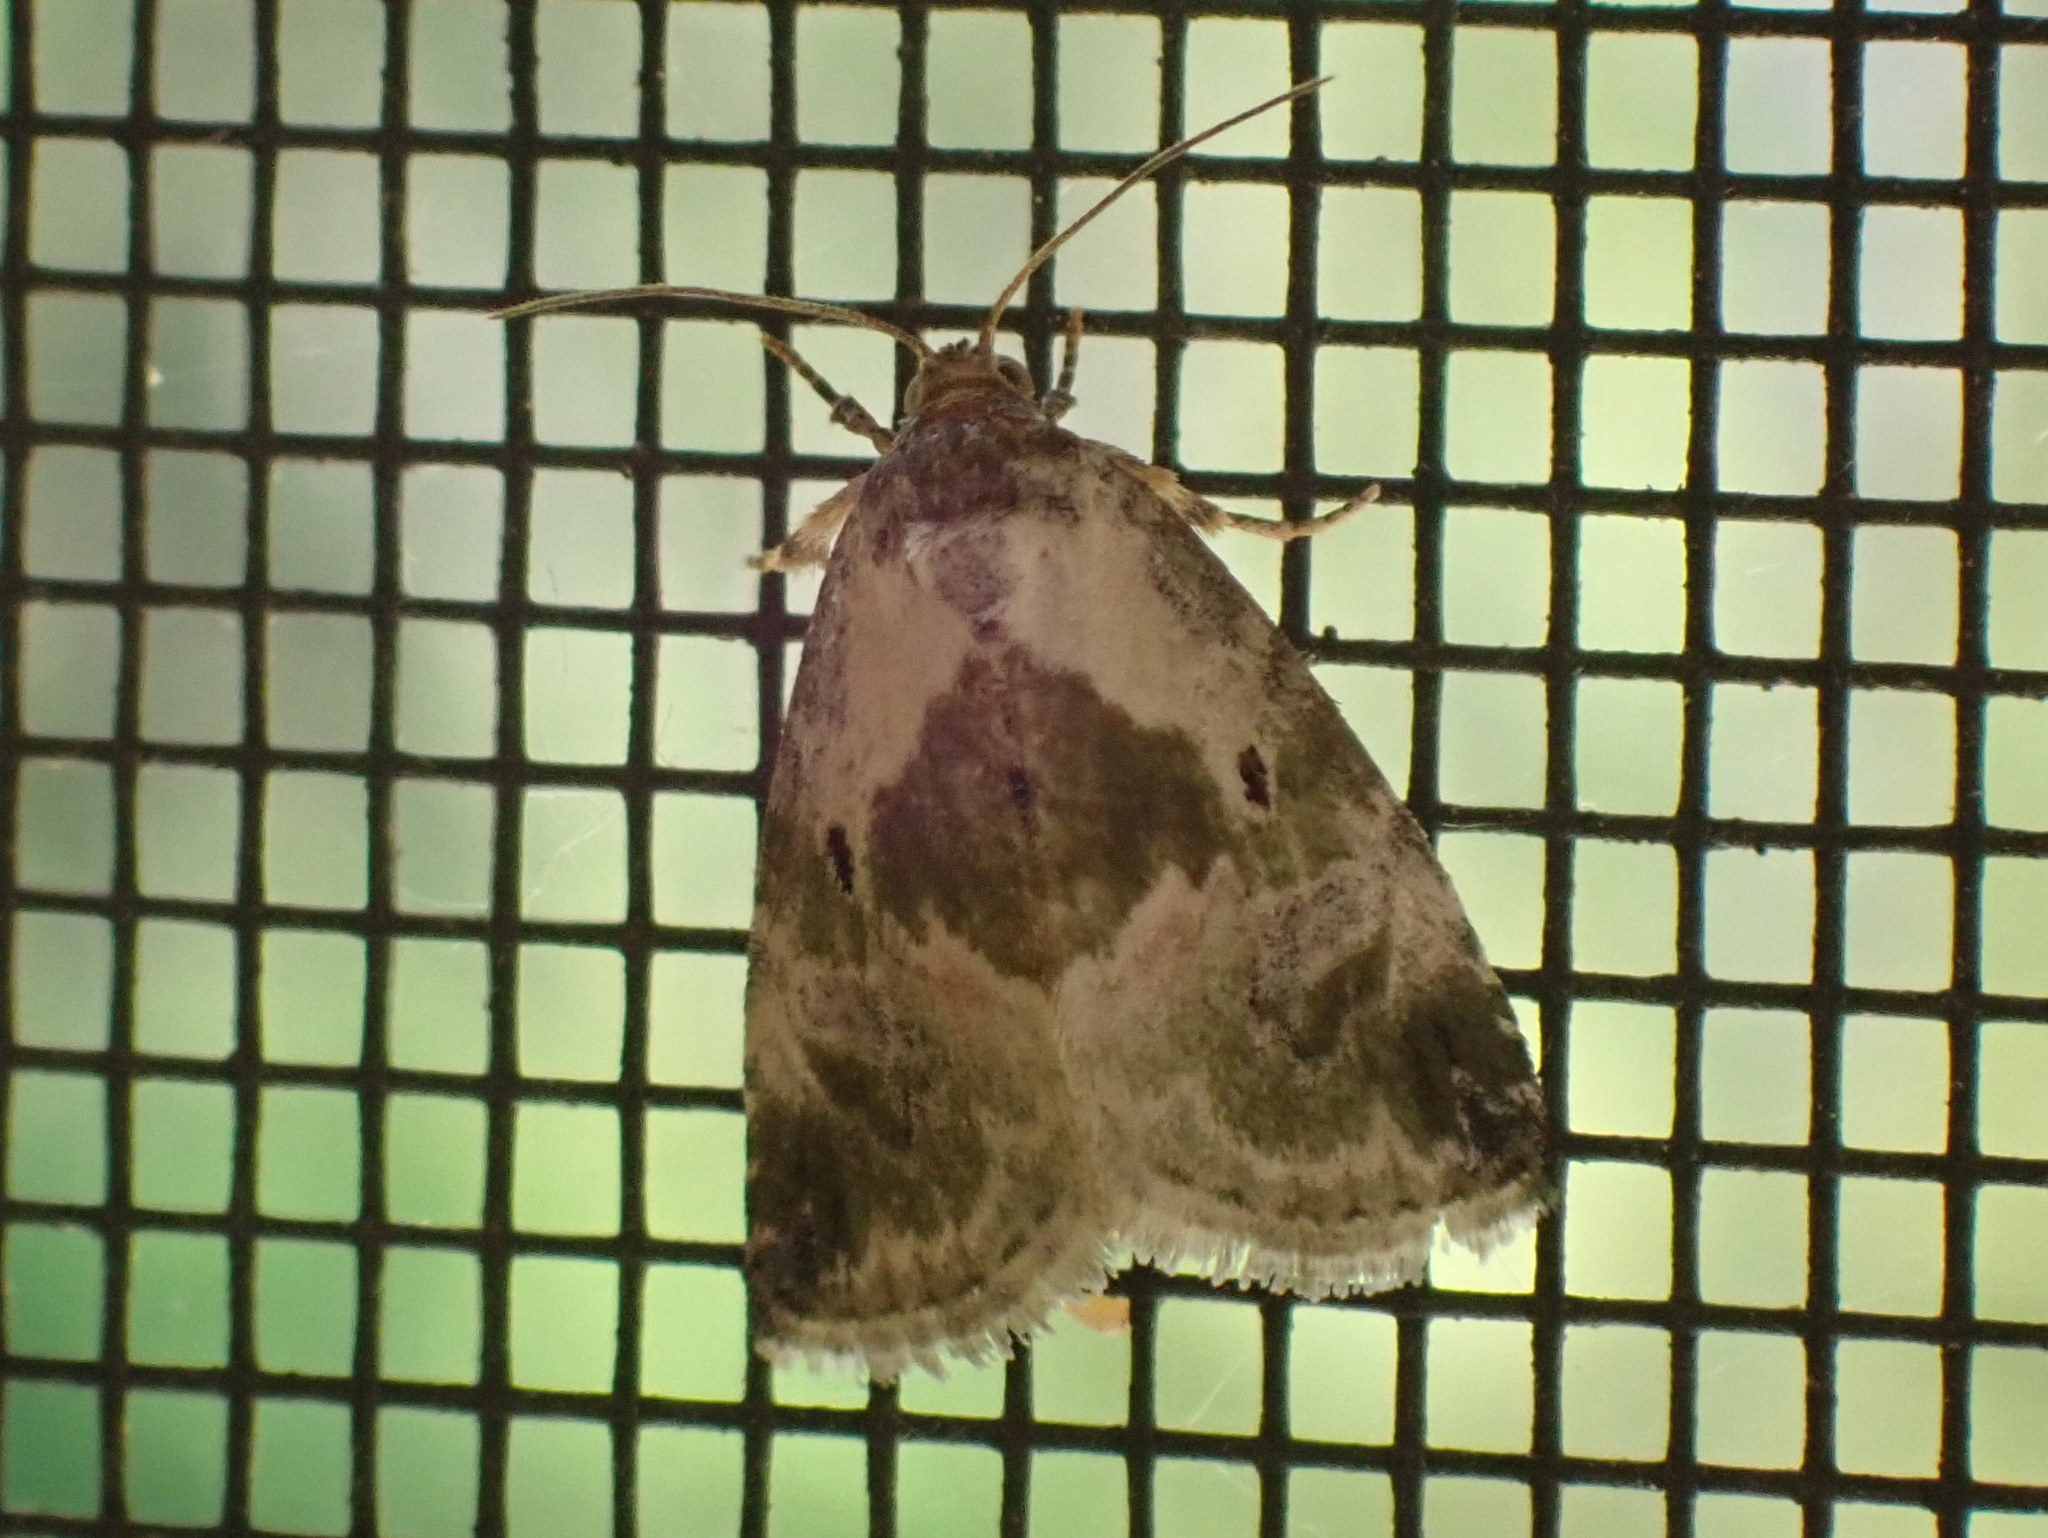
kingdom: Animalia
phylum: Arthropoda
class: Insecta
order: Lepidoptera
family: Noctuidae
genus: Maliattha
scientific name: Maliattha synochitis
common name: Black-dotted glyph
